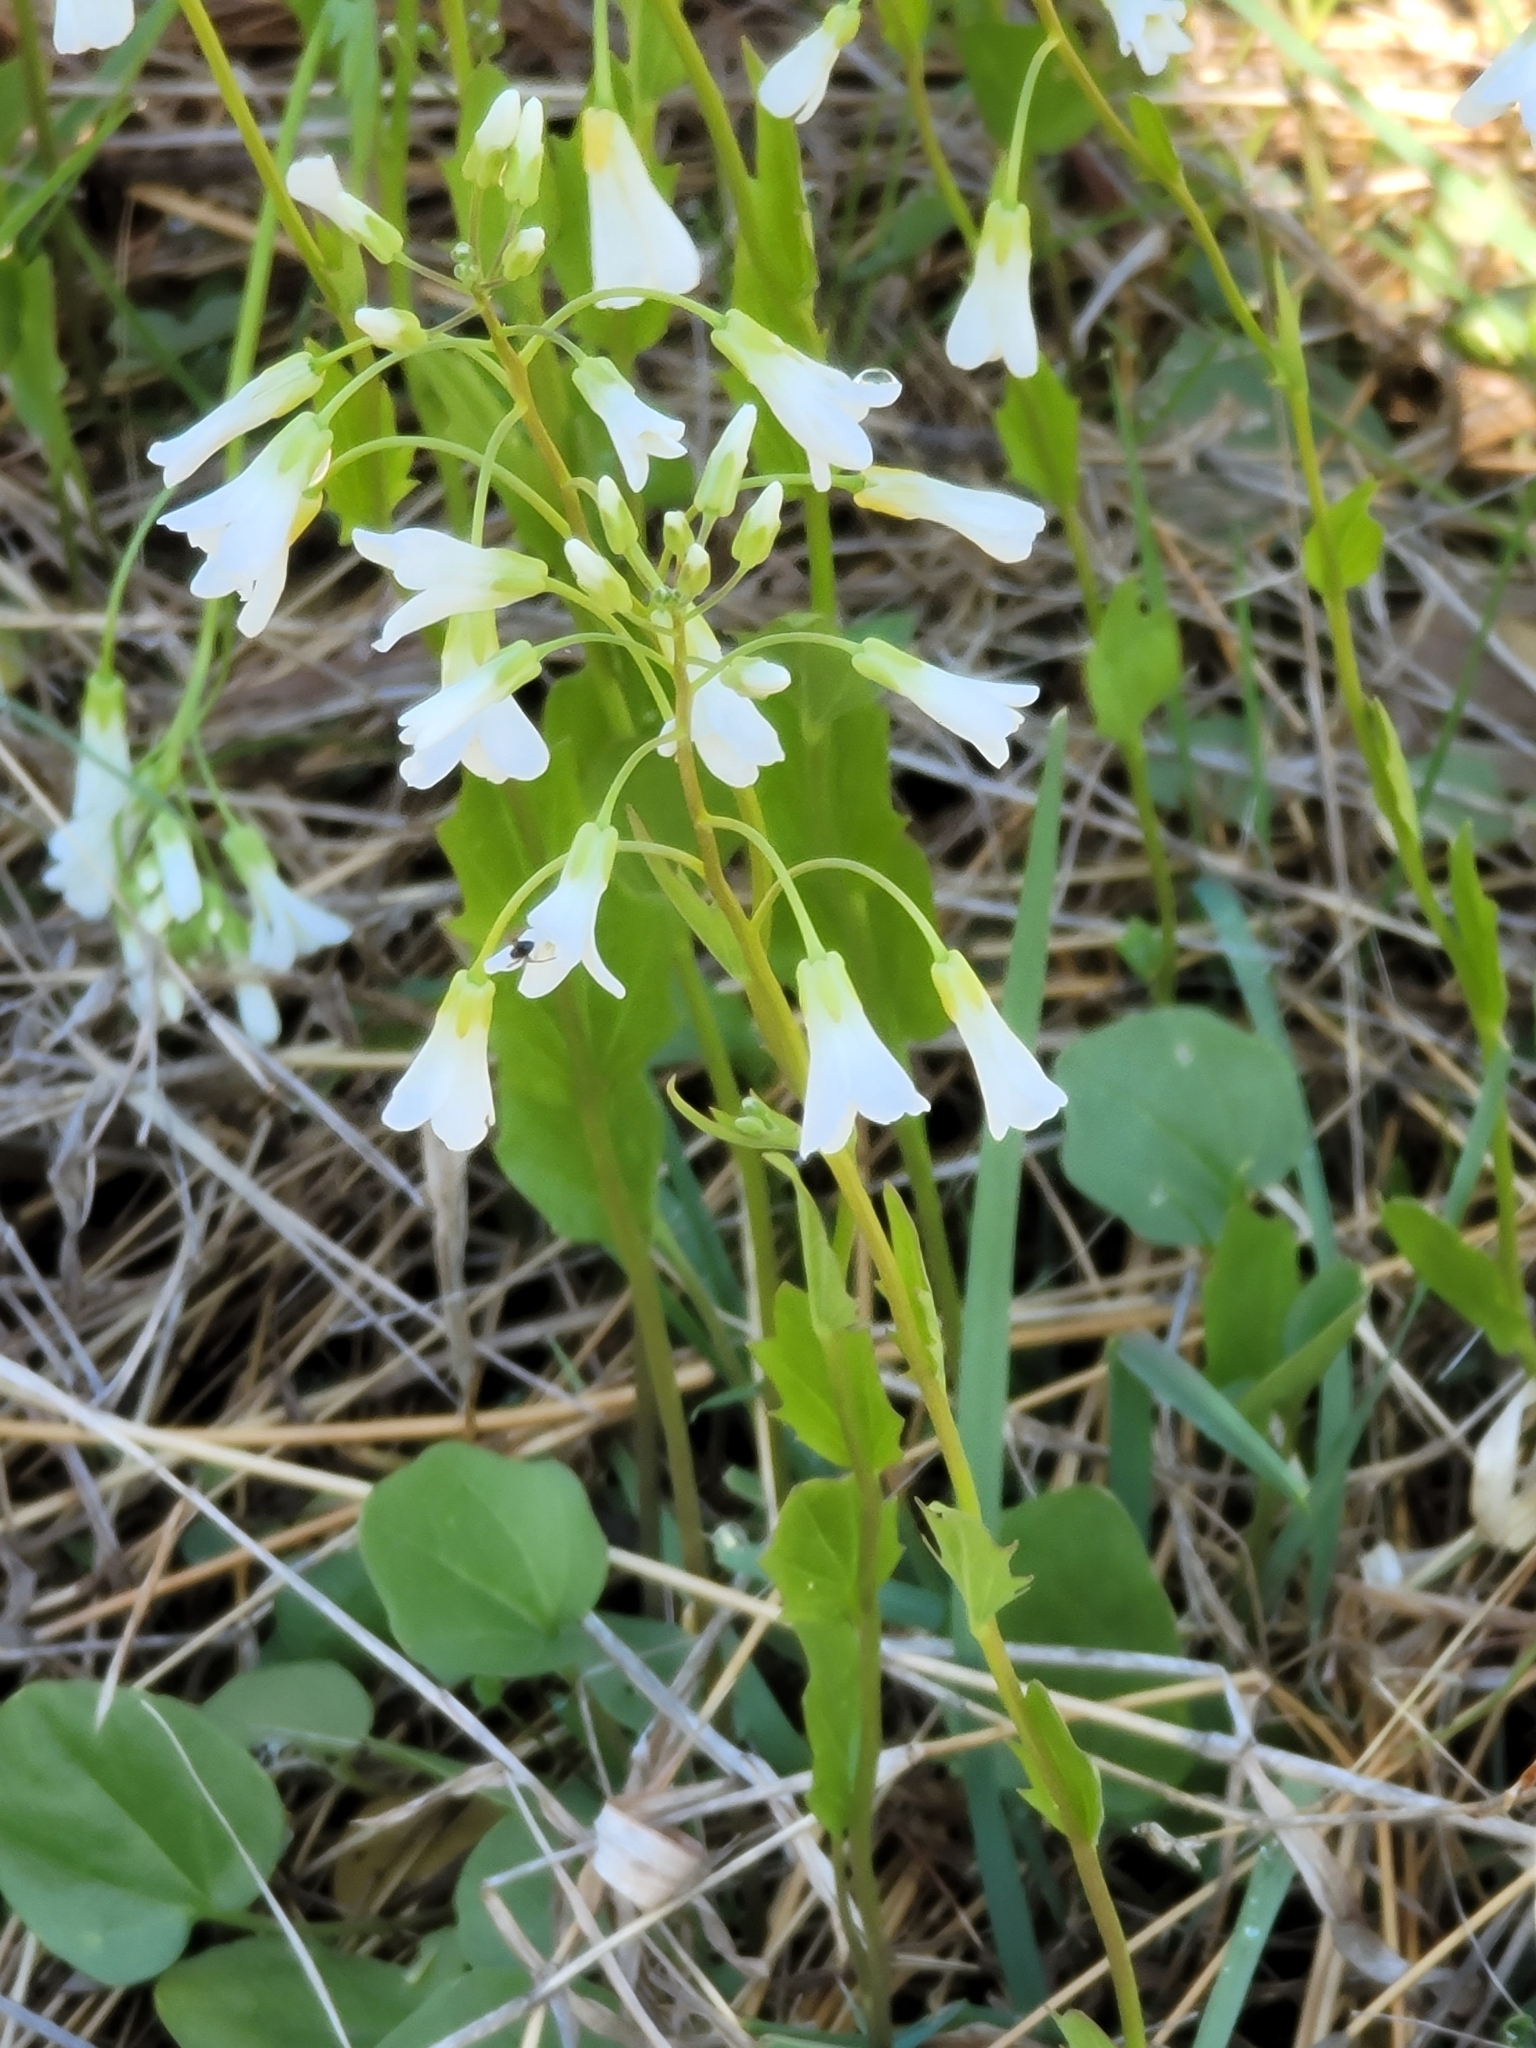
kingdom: Plantae
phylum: Tracheophyta
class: Magnoliopsida
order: Brassicales
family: Brassicaceae
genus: Cardamine
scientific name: Cardamine bulbosa
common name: Spring cress
